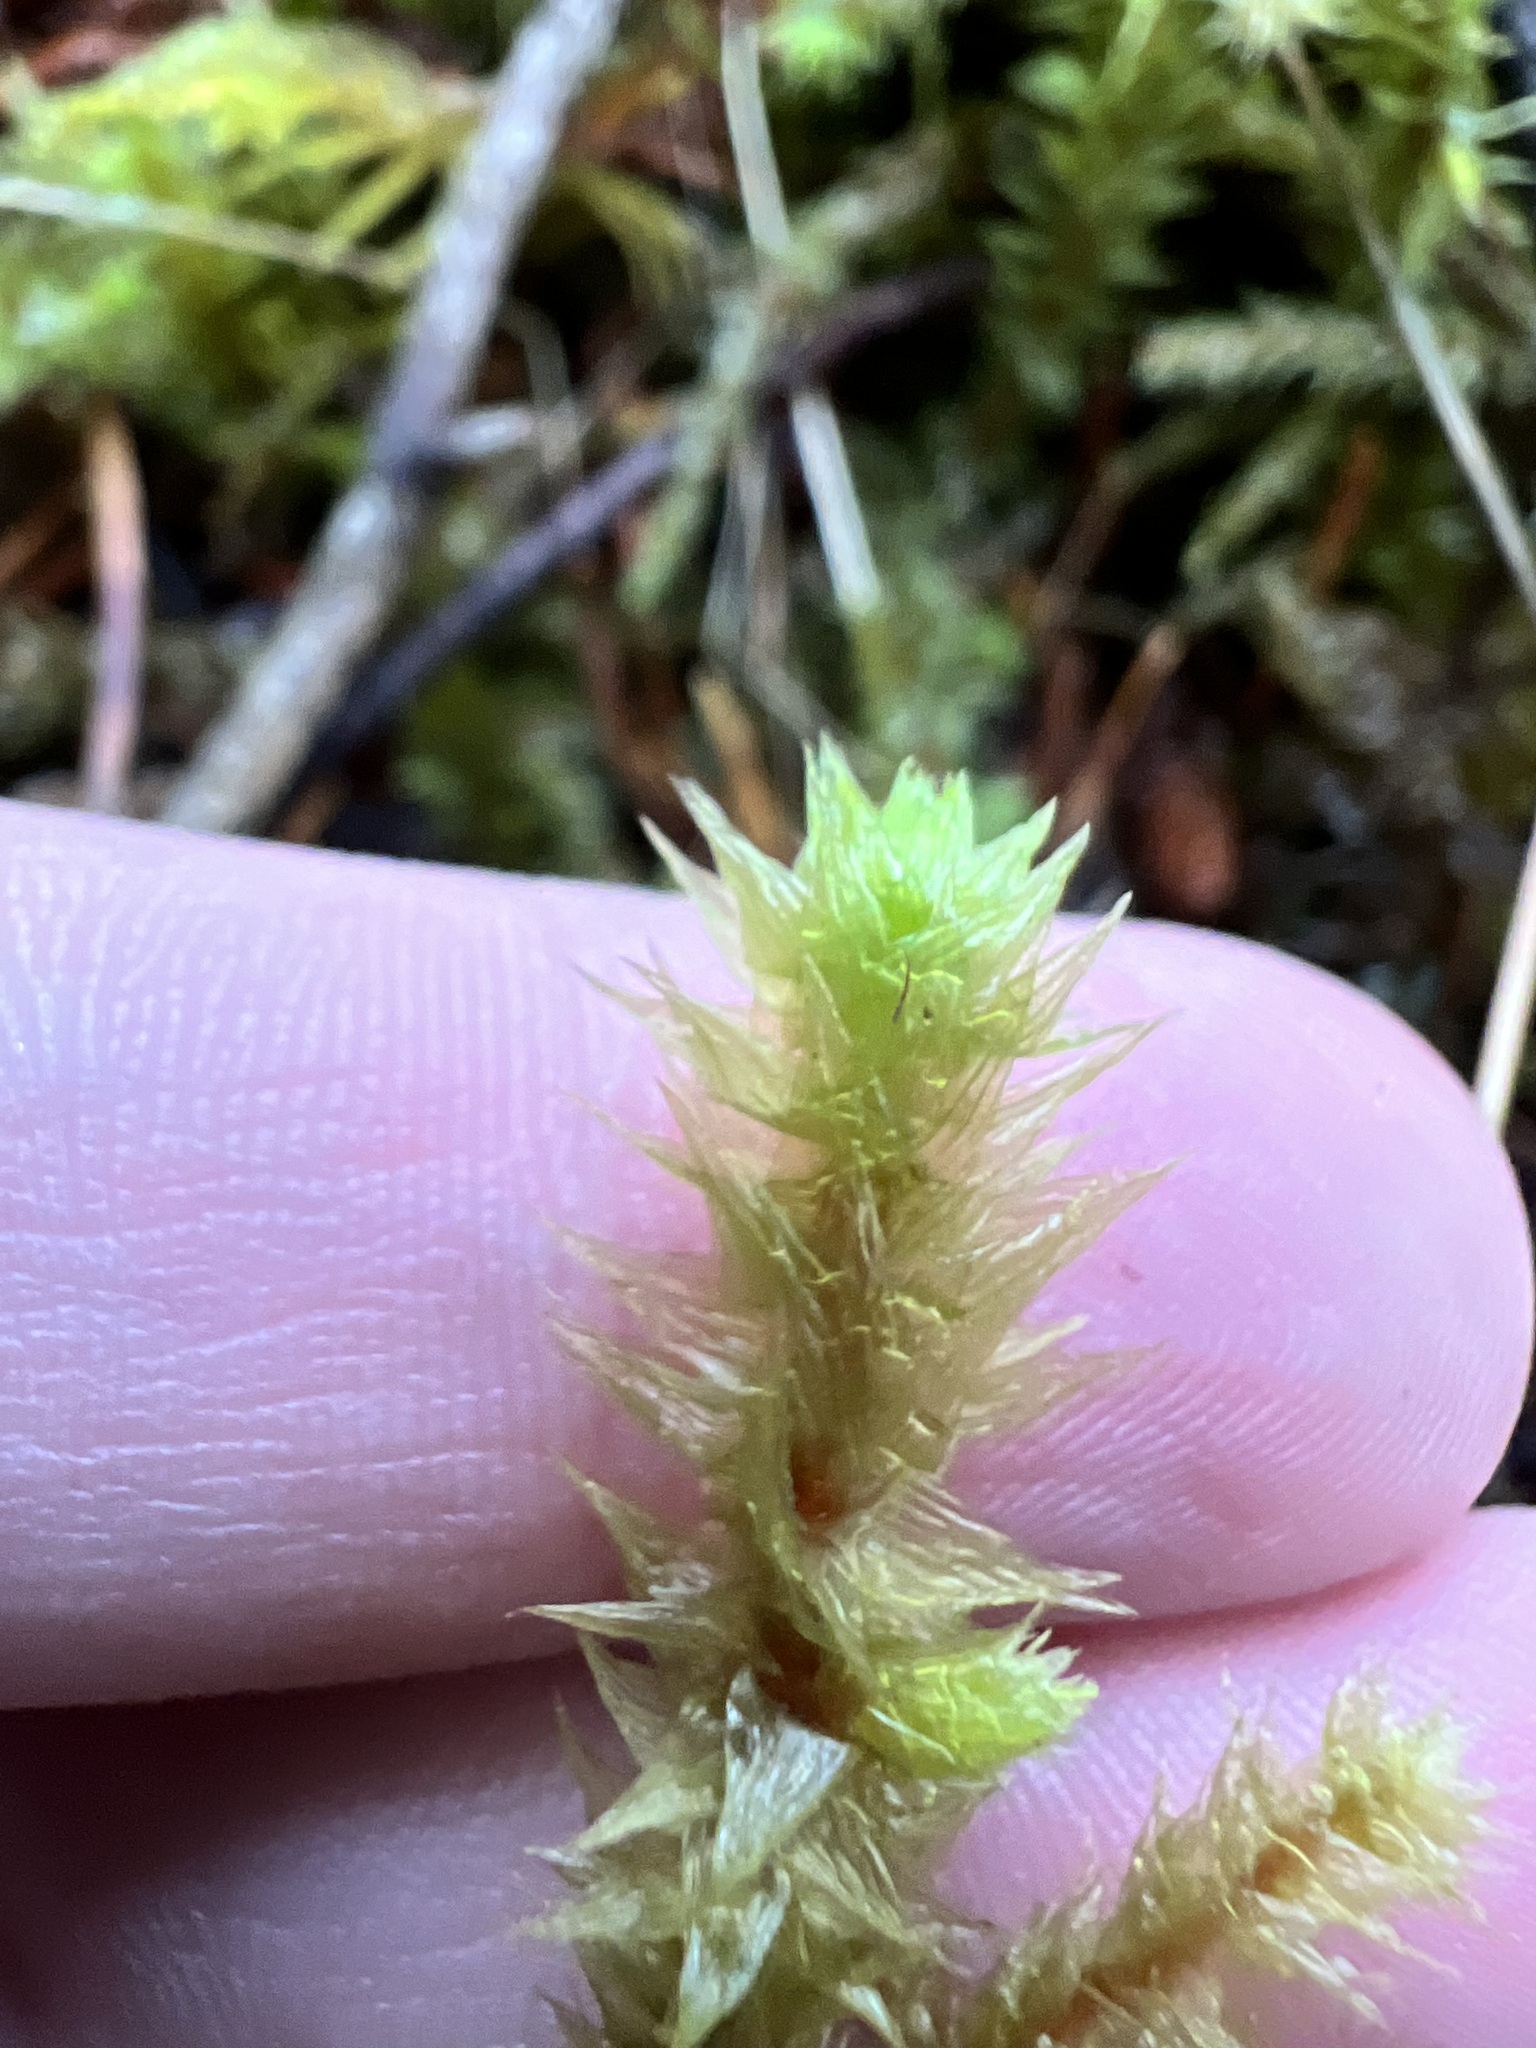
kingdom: Plantae
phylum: Bryophyta
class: Bryopsida
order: Hypnales
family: Hylocomiaceae
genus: Hylocomiadelphus
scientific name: Hylocomiadelphus triquetrus
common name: Rough goose neck moss
